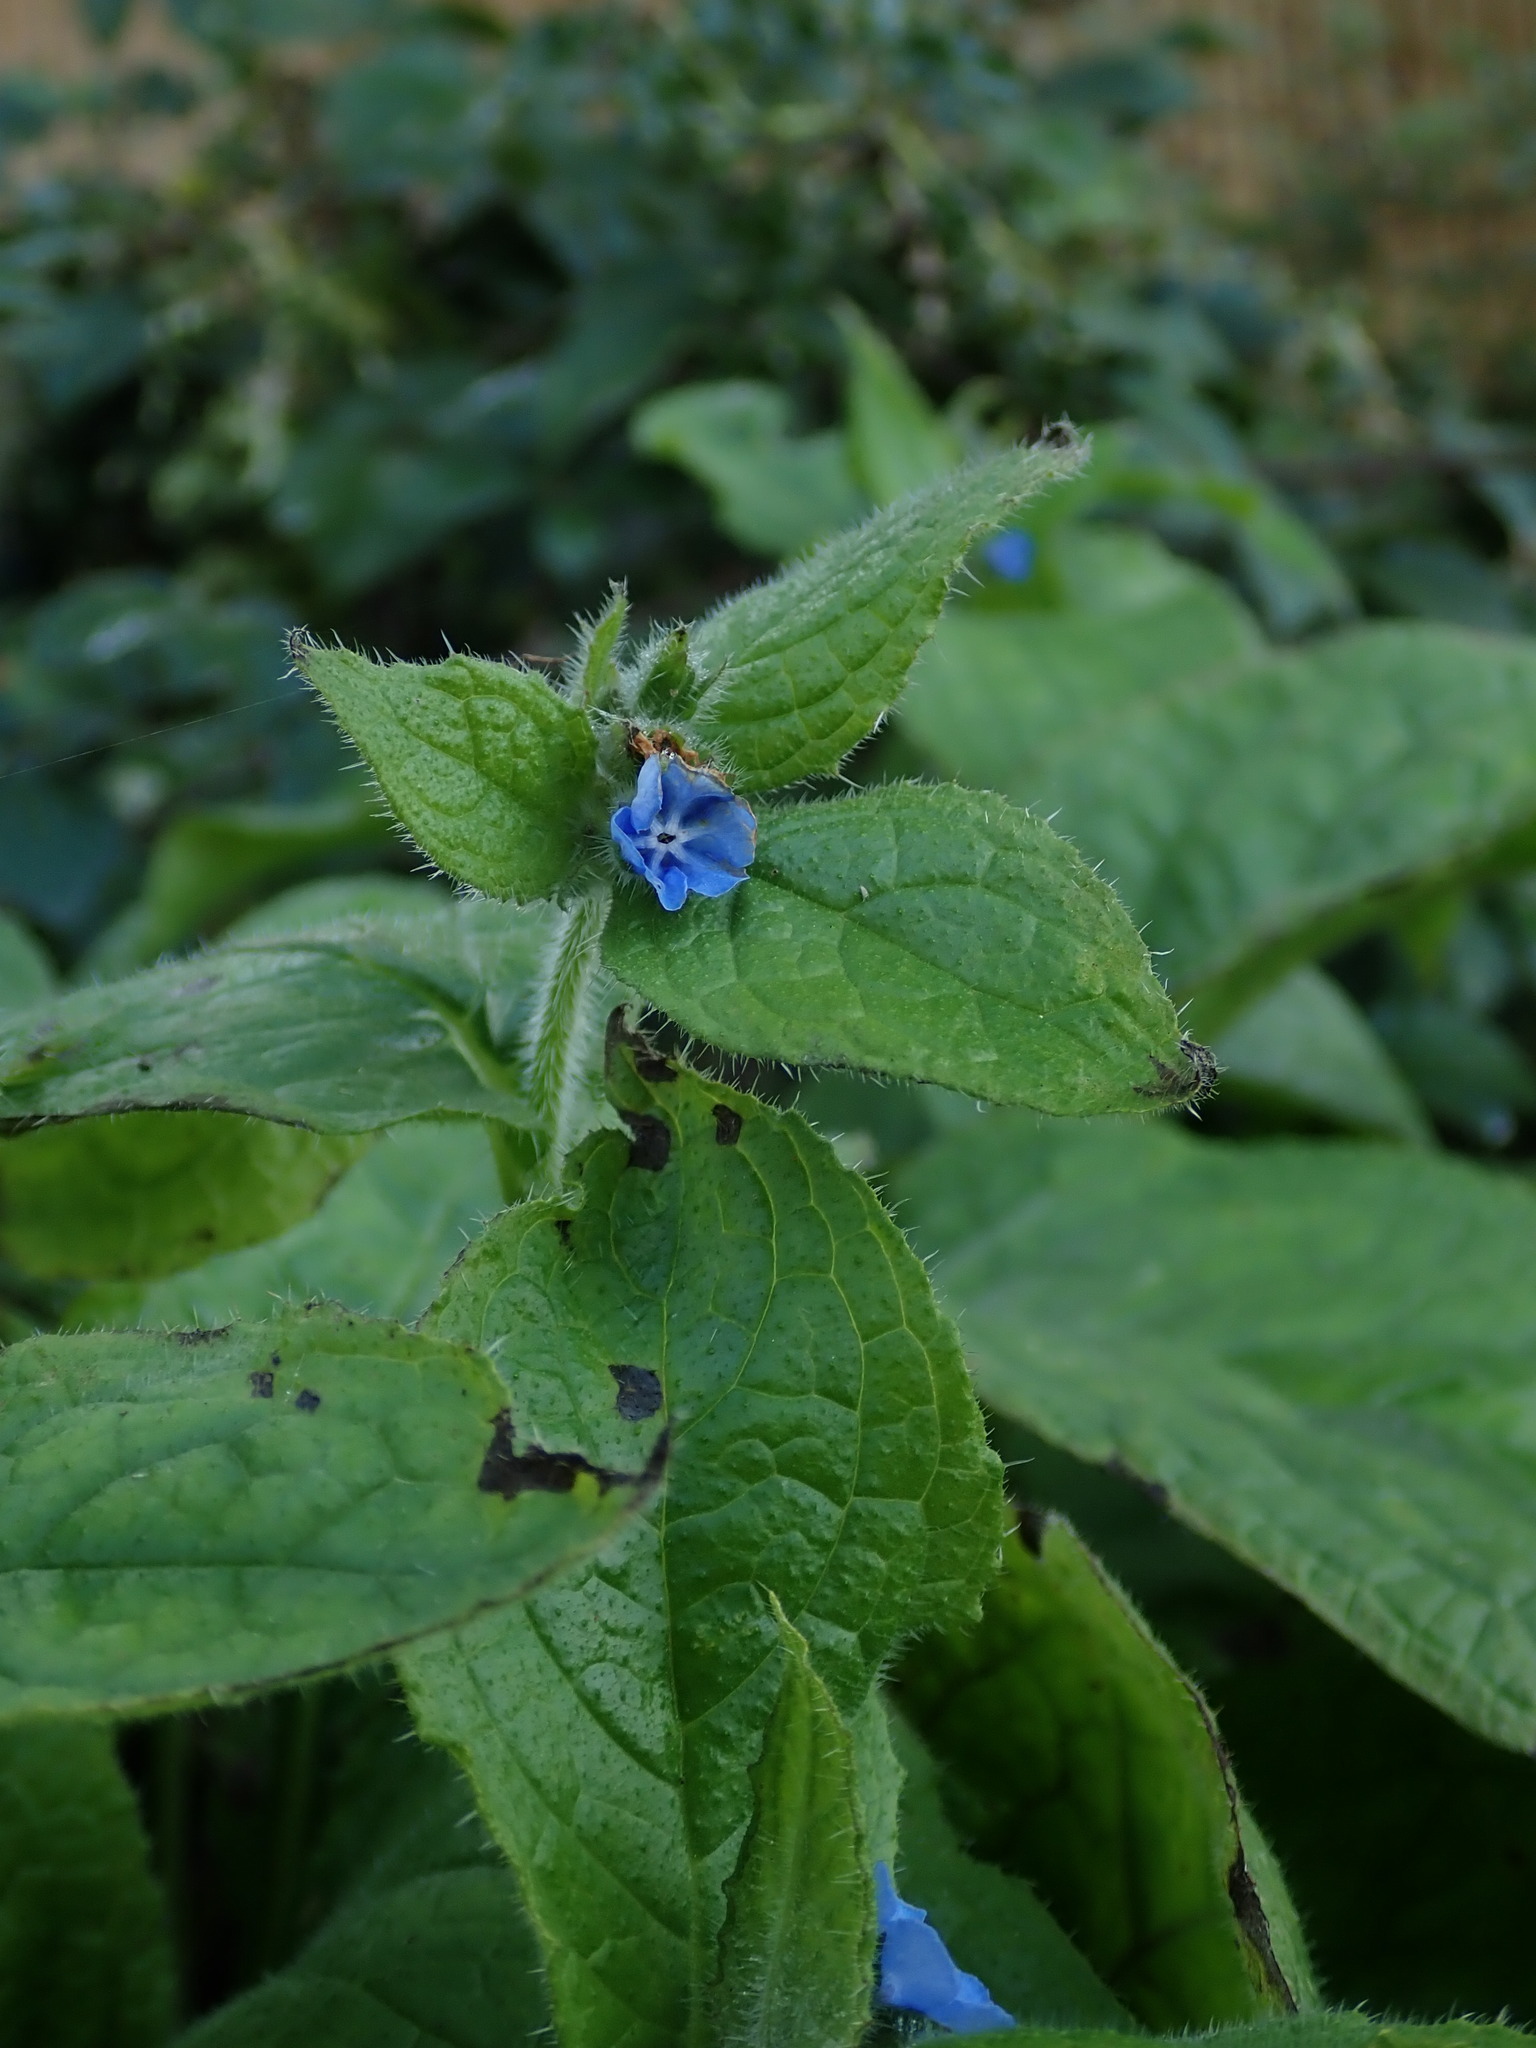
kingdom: Plantae
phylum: Tracheophyta
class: Magnoliopsida
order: Boraginales
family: Boraginaceae
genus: Pentaglottis
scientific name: Pentaglottis sempervirens
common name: Green alkanet
